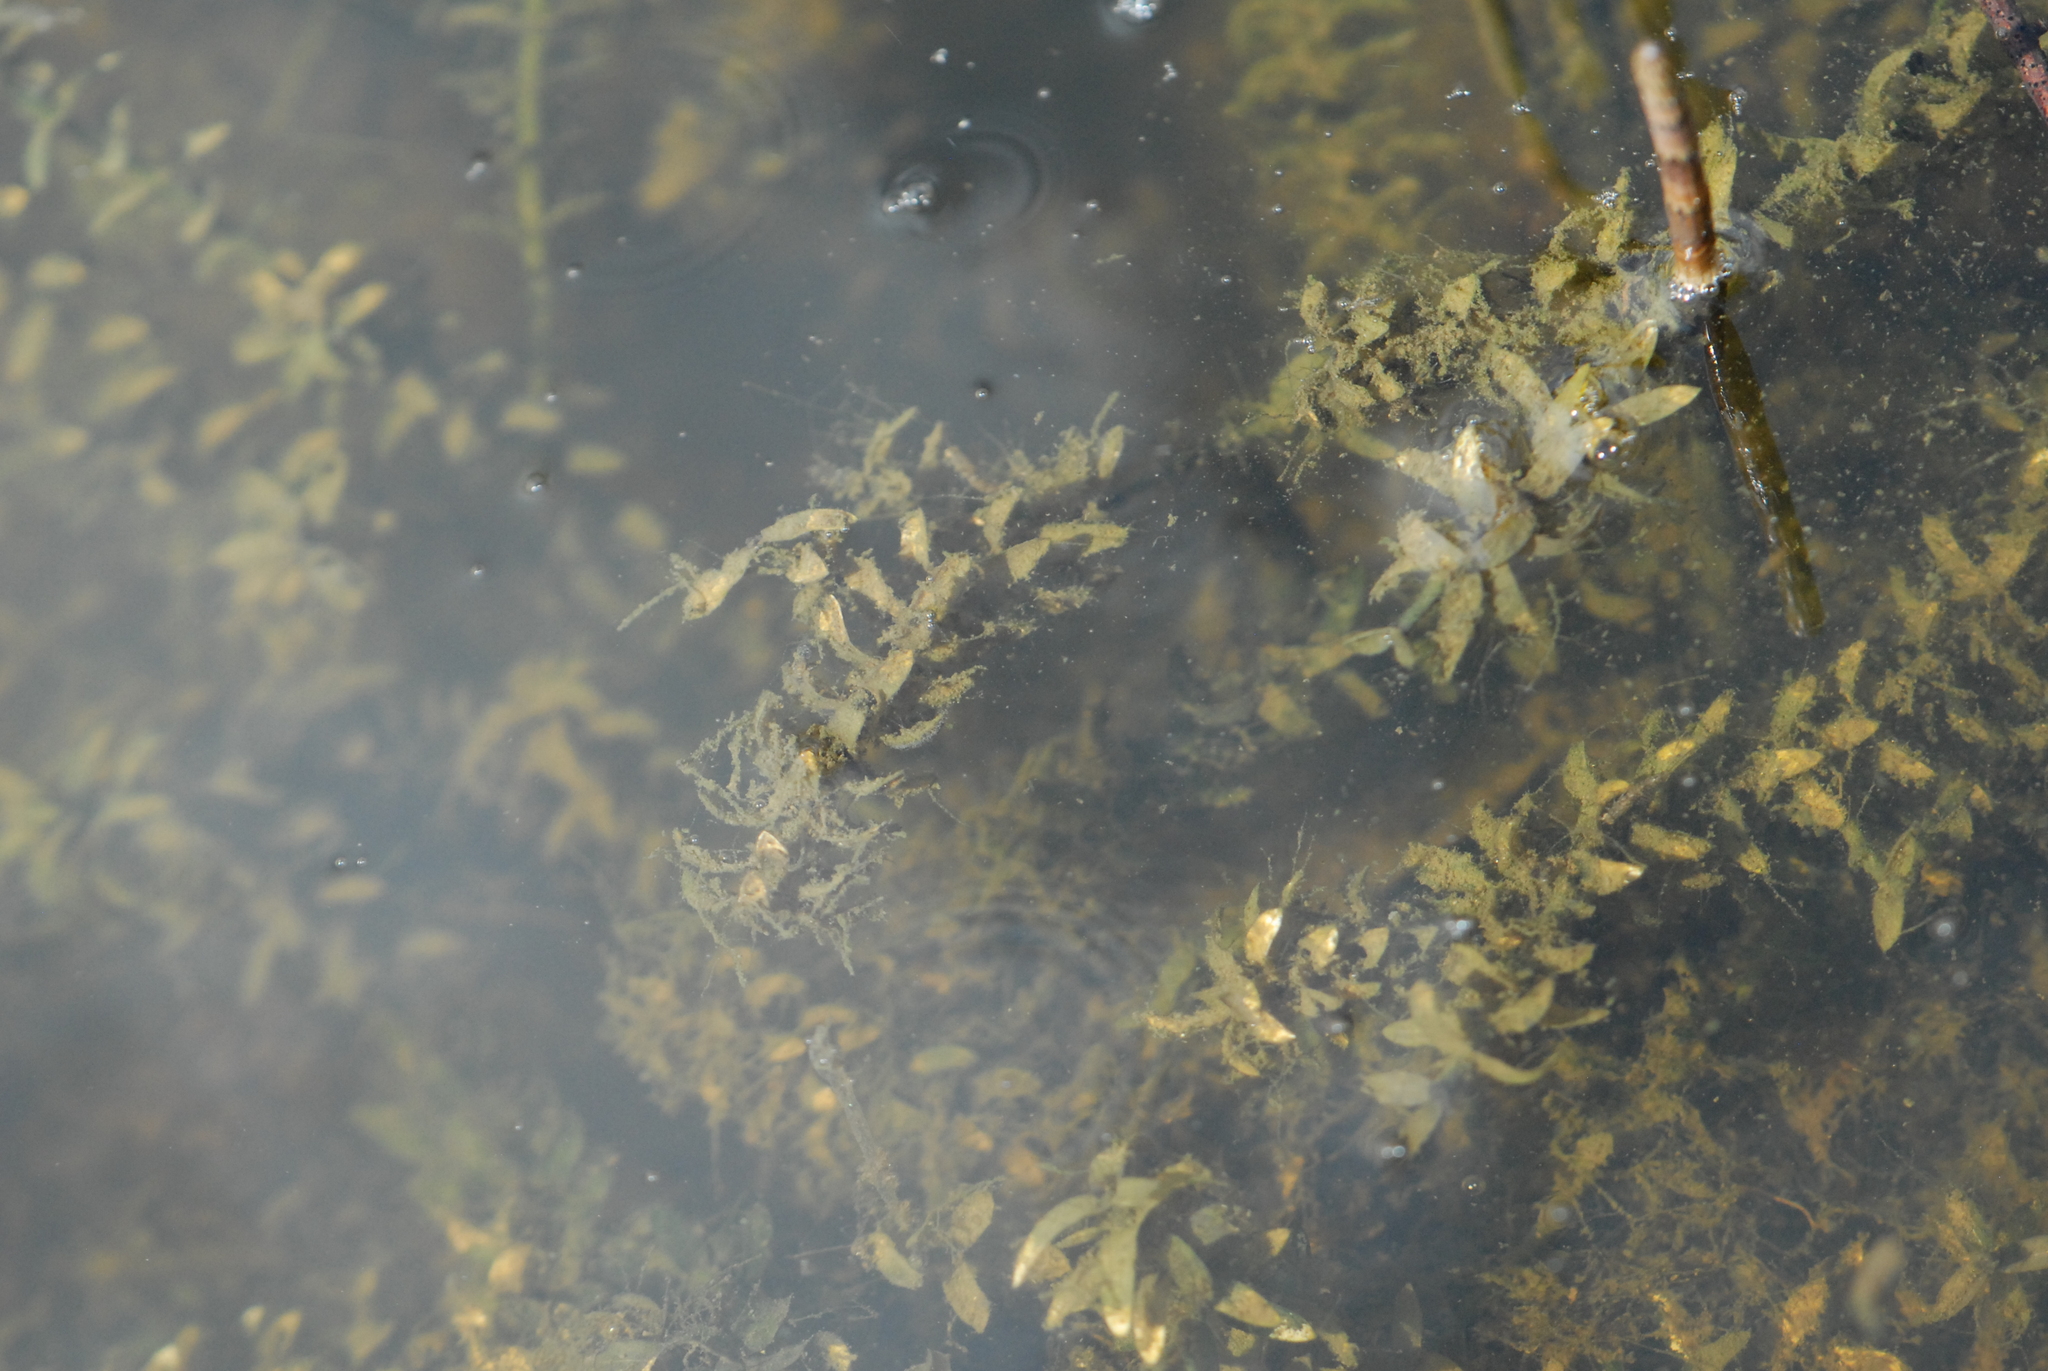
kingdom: Plantae
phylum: Tracheophyta
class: Liliopsida
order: Alismatales
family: Hydrocharitaceae
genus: Elodea
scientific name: Elodea canadensis
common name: Canadian waterweed
